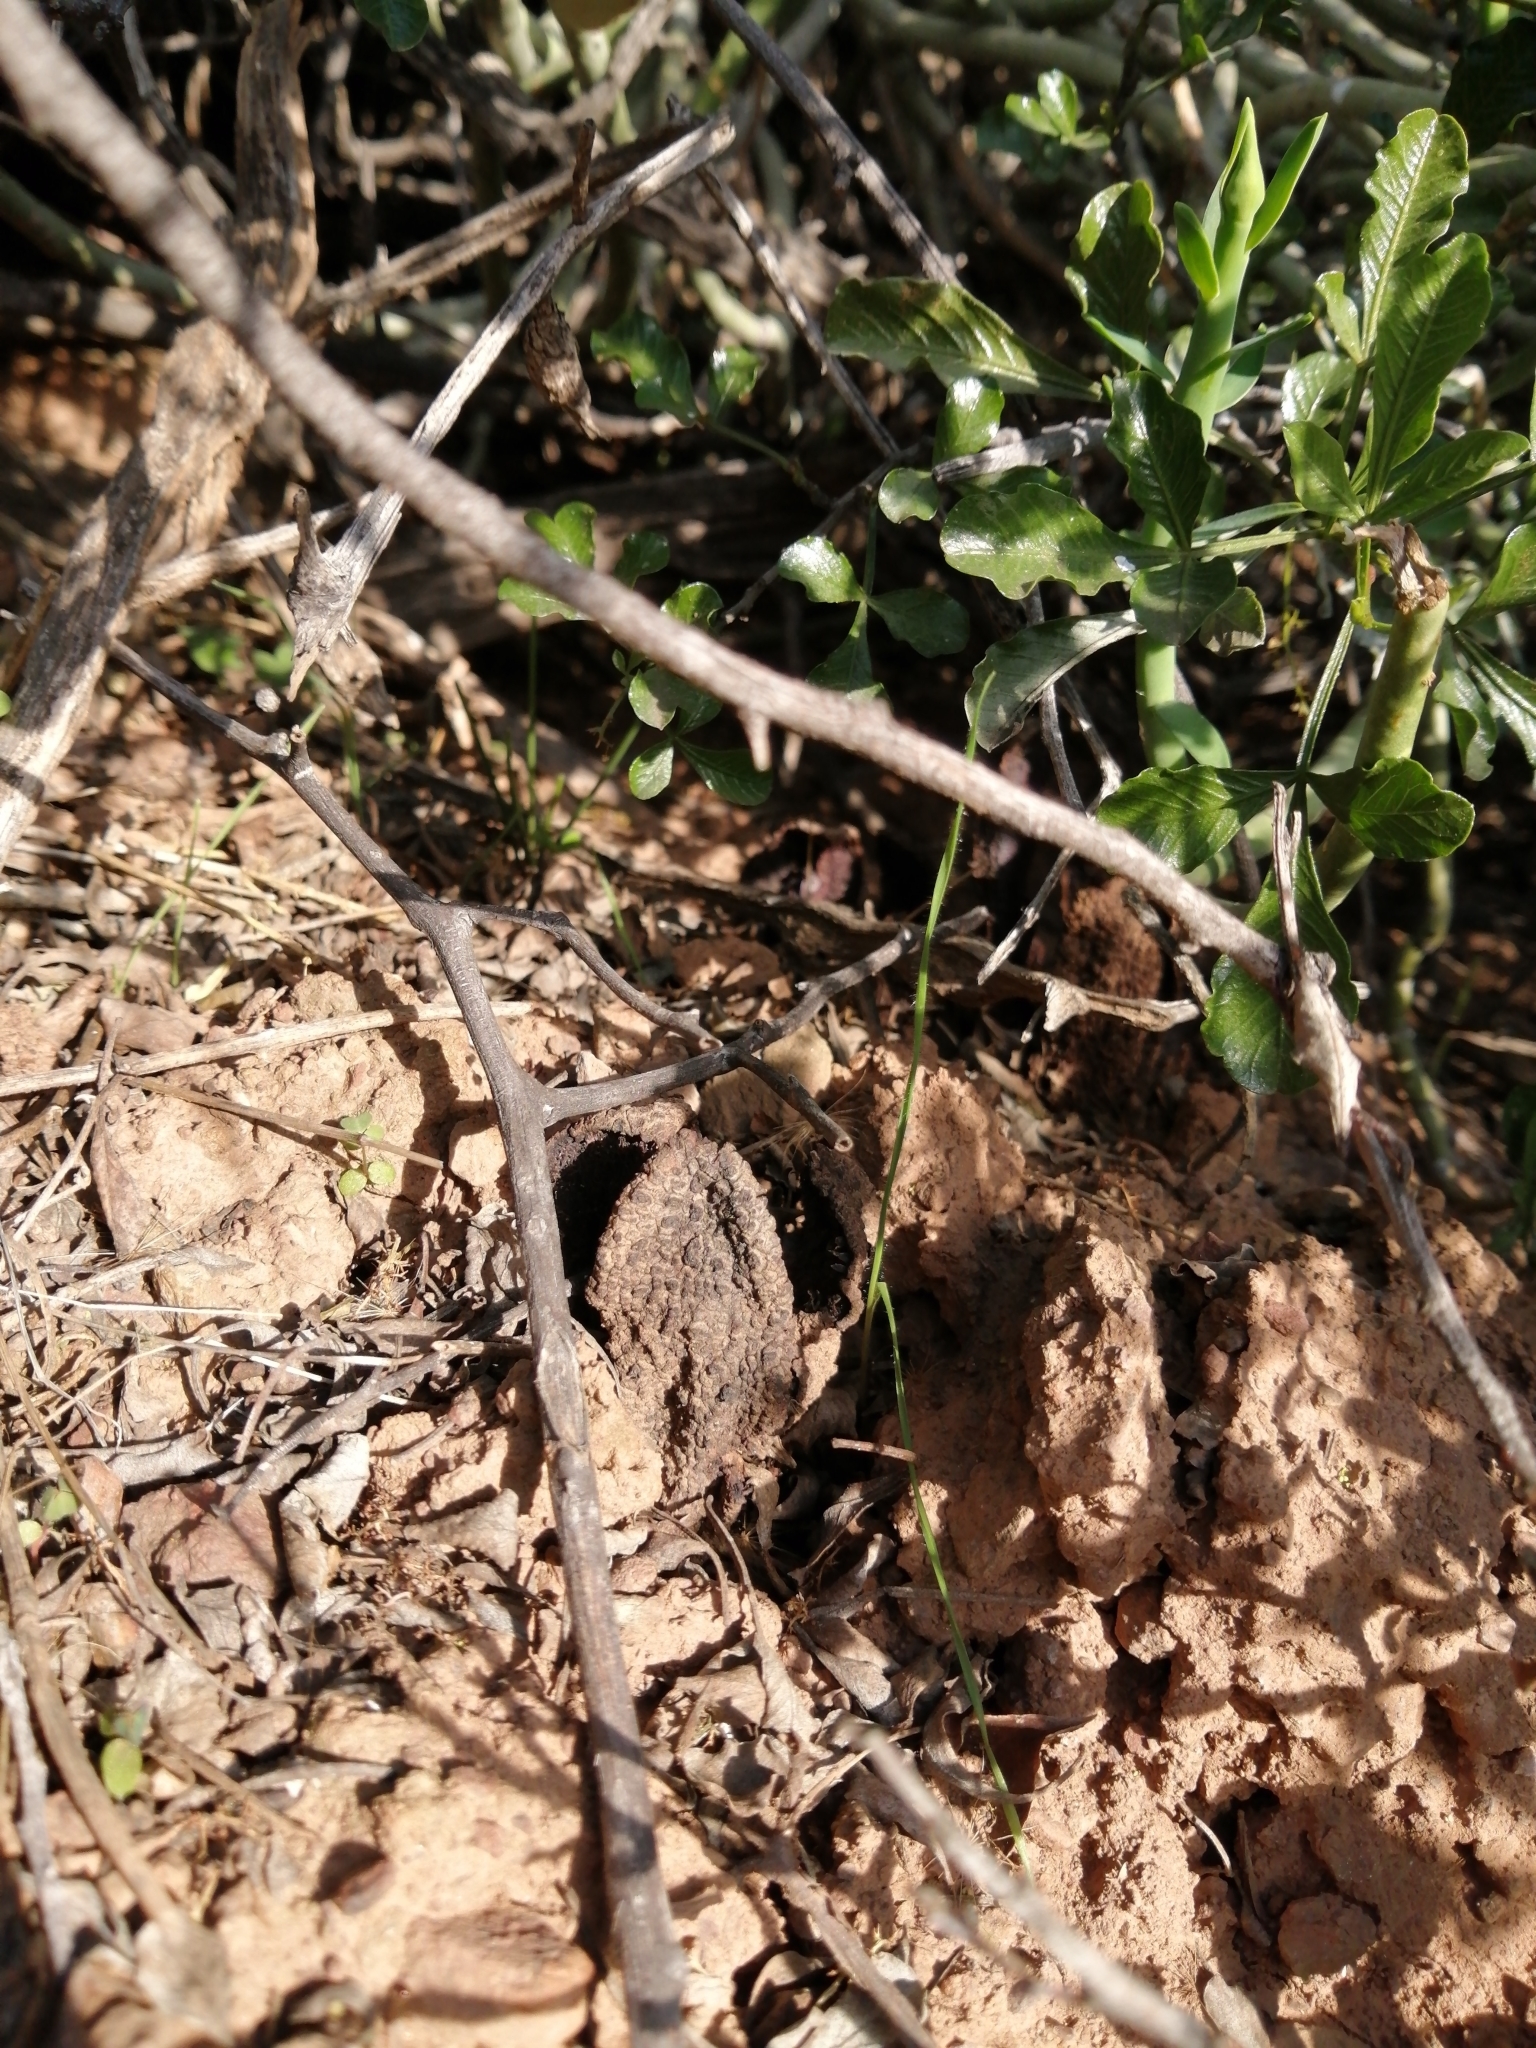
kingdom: Plantae
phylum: Tracheophyta
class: Magnoliopsida
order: Piperales
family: Hydnoraceae
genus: Hydnora
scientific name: Hydnora africana
